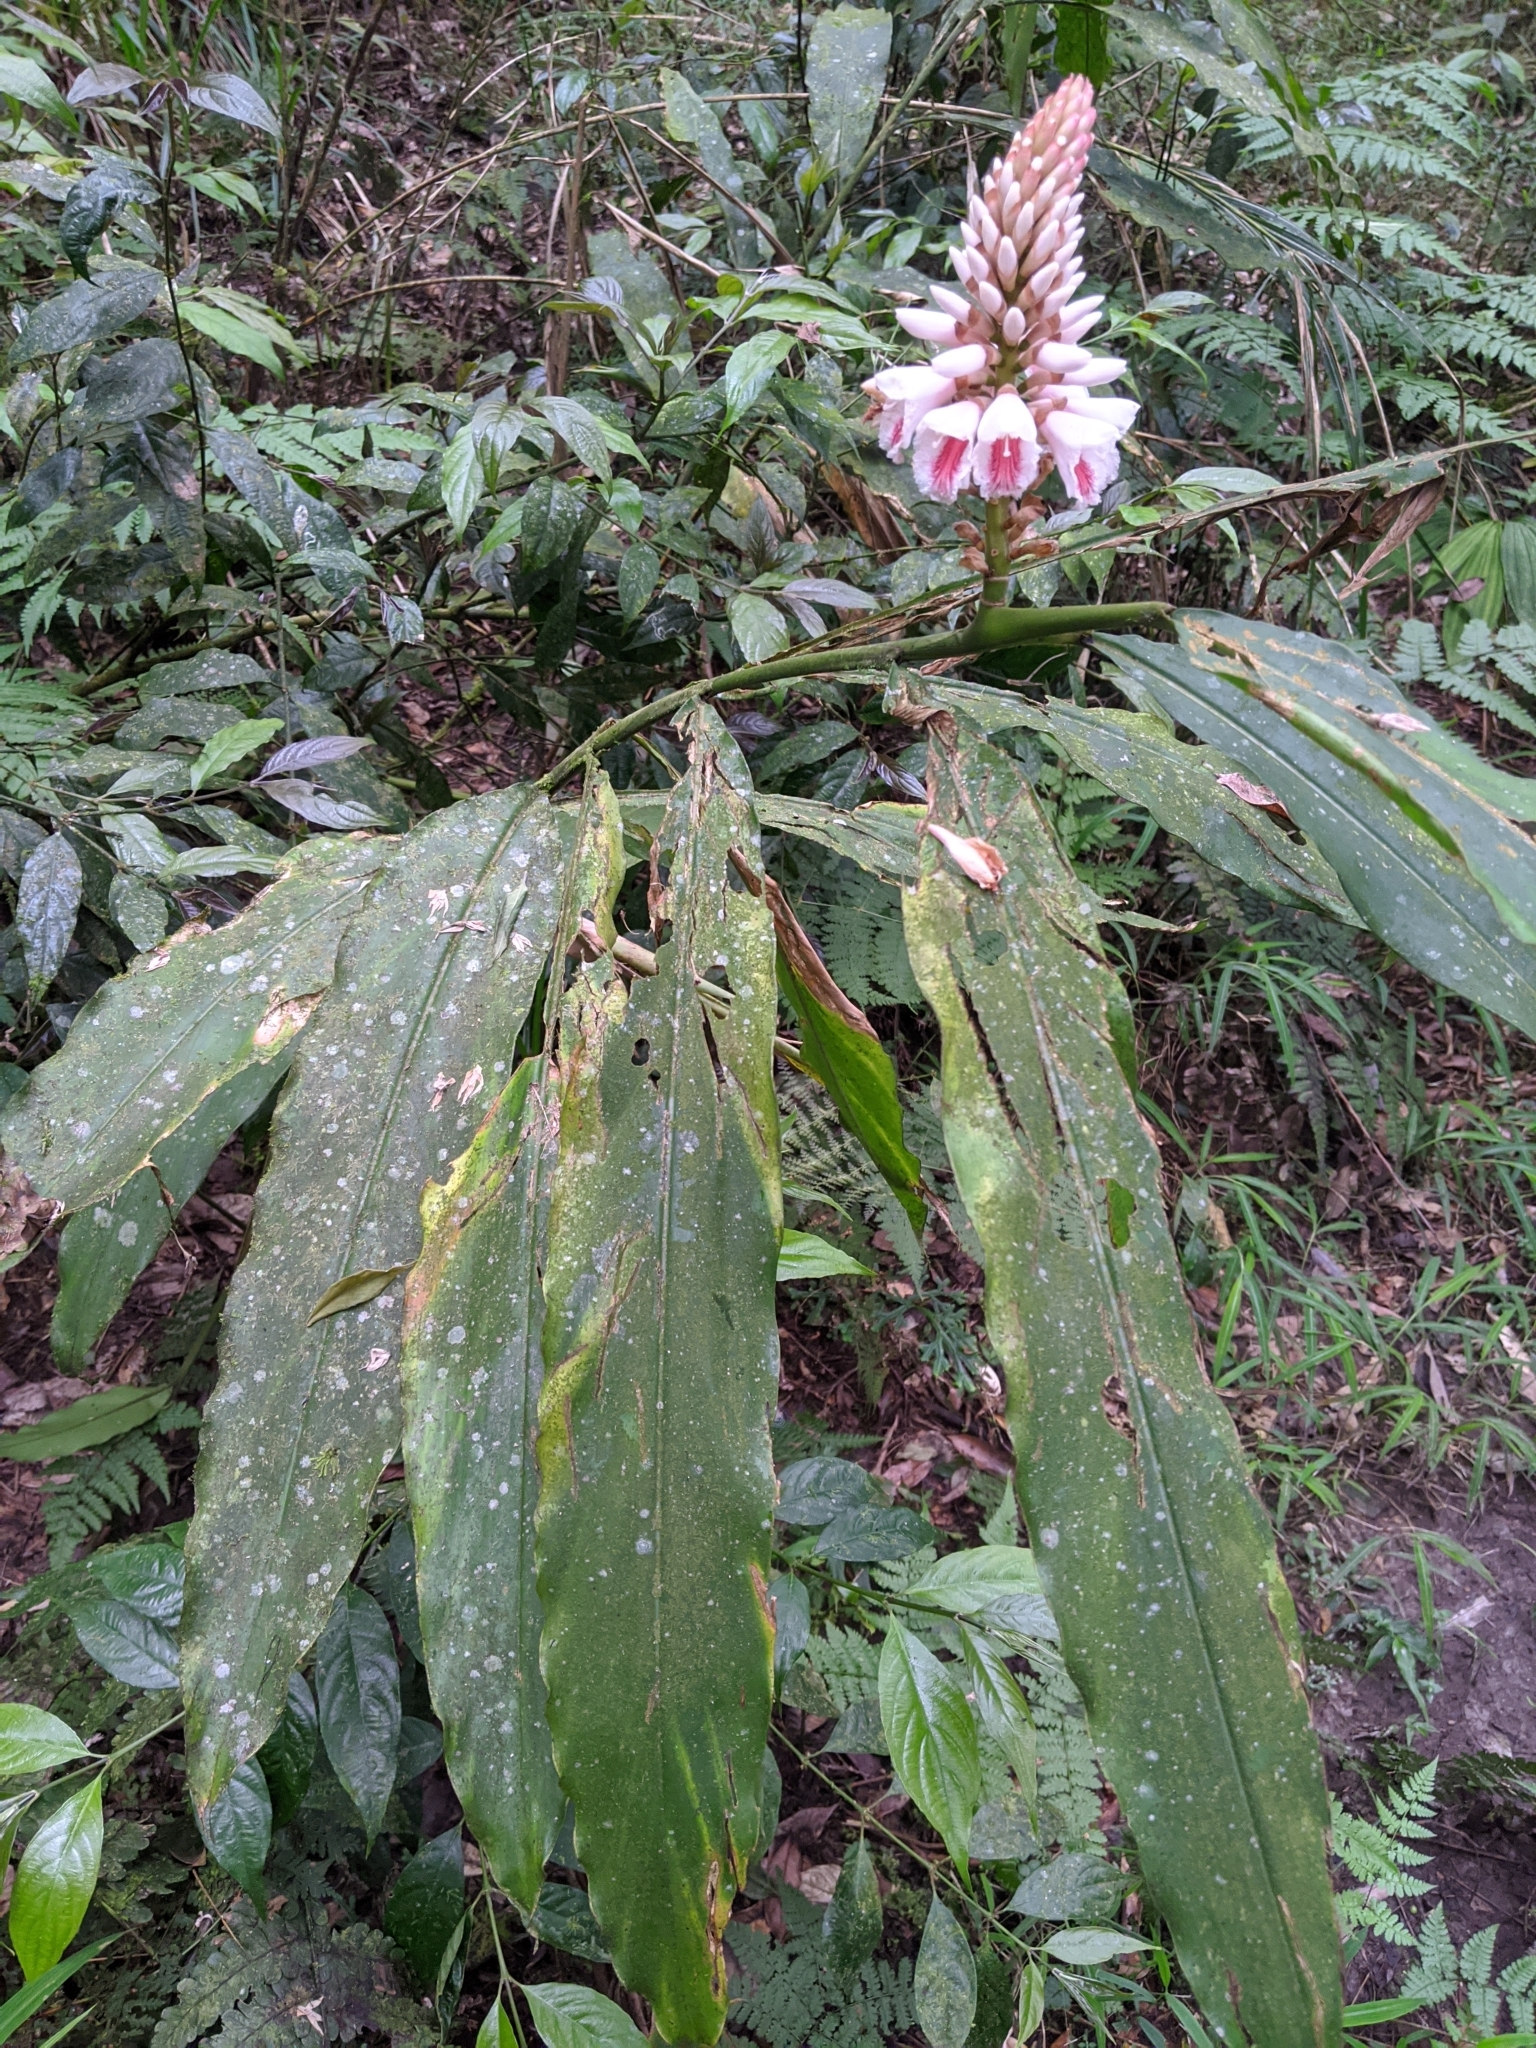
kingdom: Plantae
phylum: Tracheophyta
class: Liliopsida
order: Zingiberales
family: Zingiberaceae
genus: Alpinia
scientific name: Alpinia pricei
